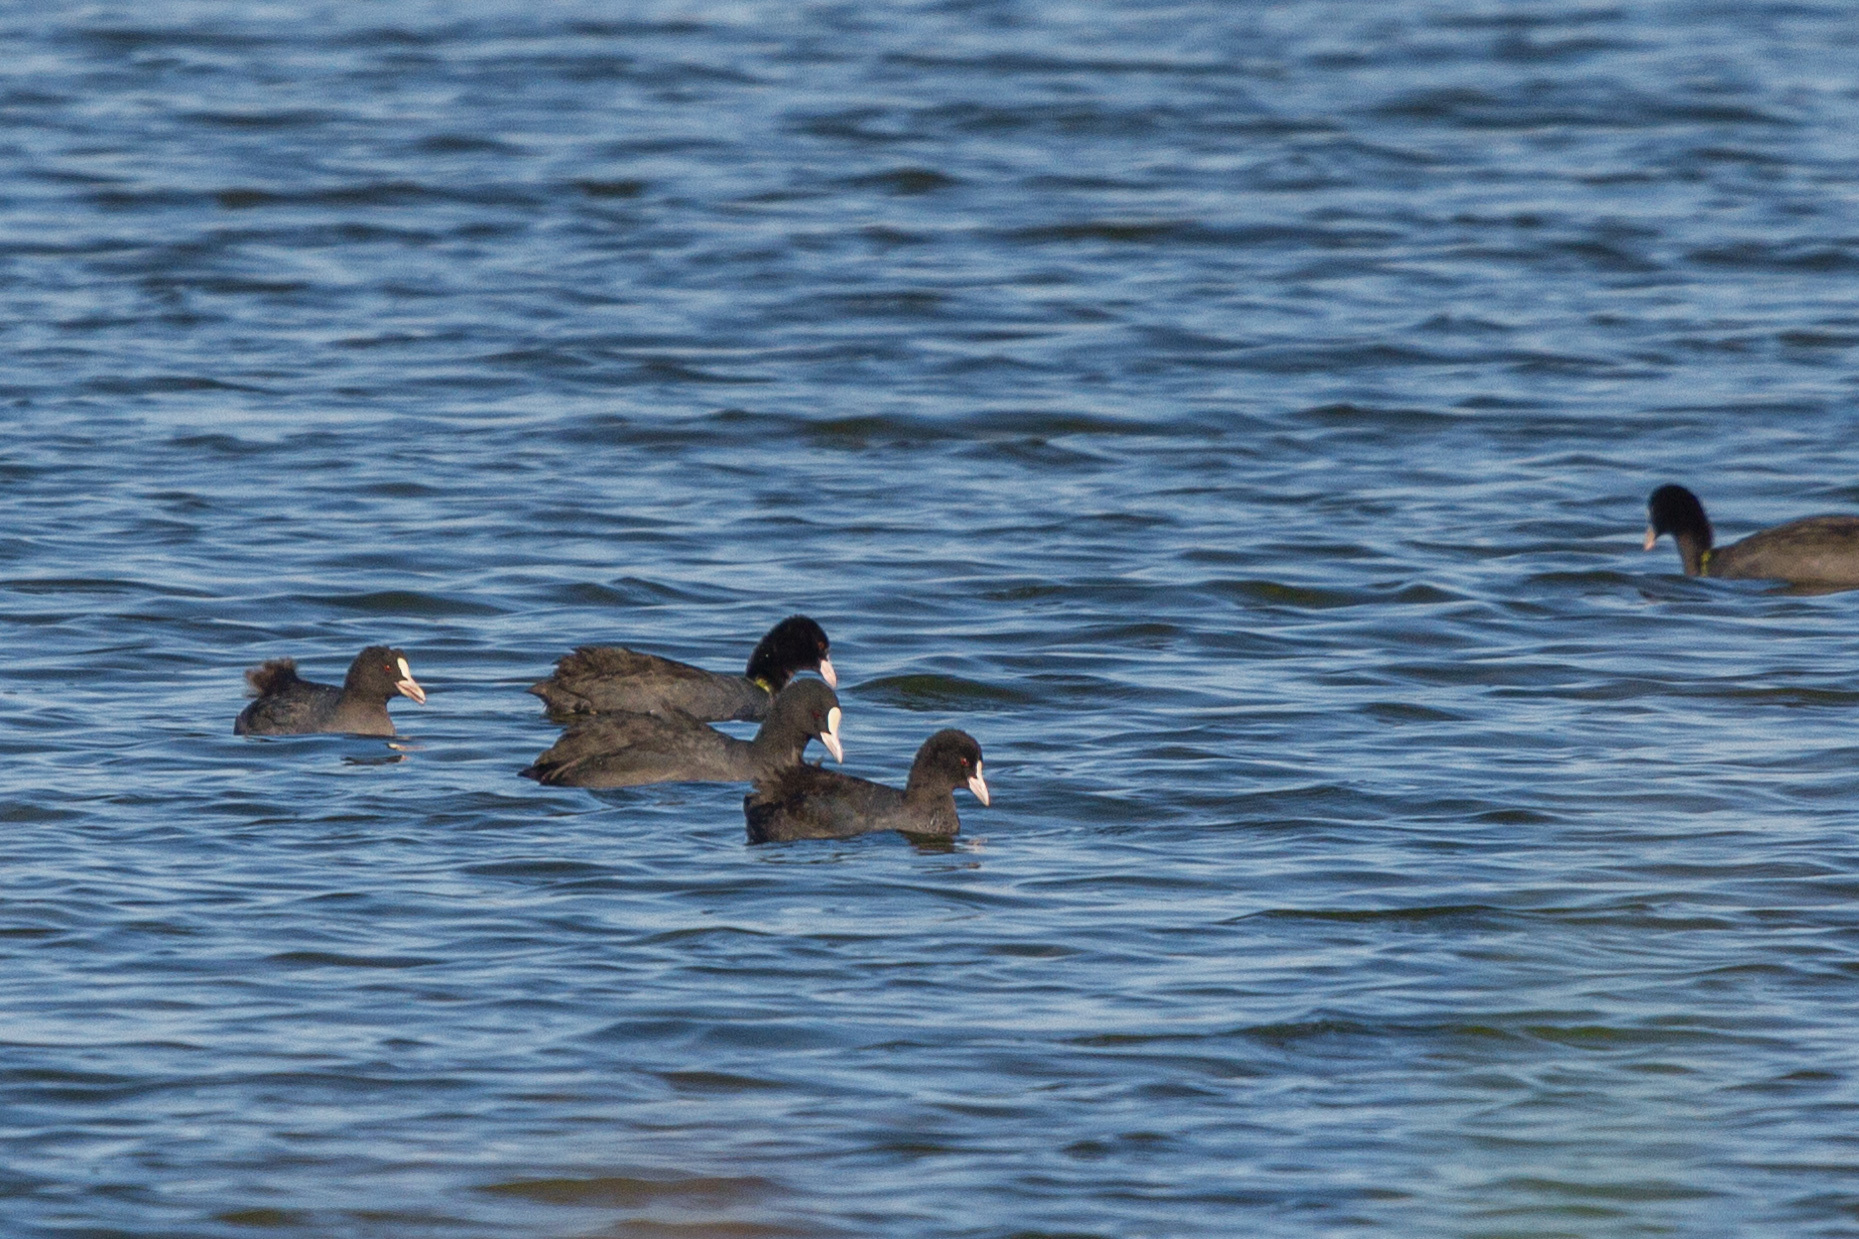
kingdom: Animalia
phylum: Chordata
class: Aves
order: Gruiformes
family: Rallidae
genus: Fulica
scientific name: Fulica atra
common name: Eurasian coot
